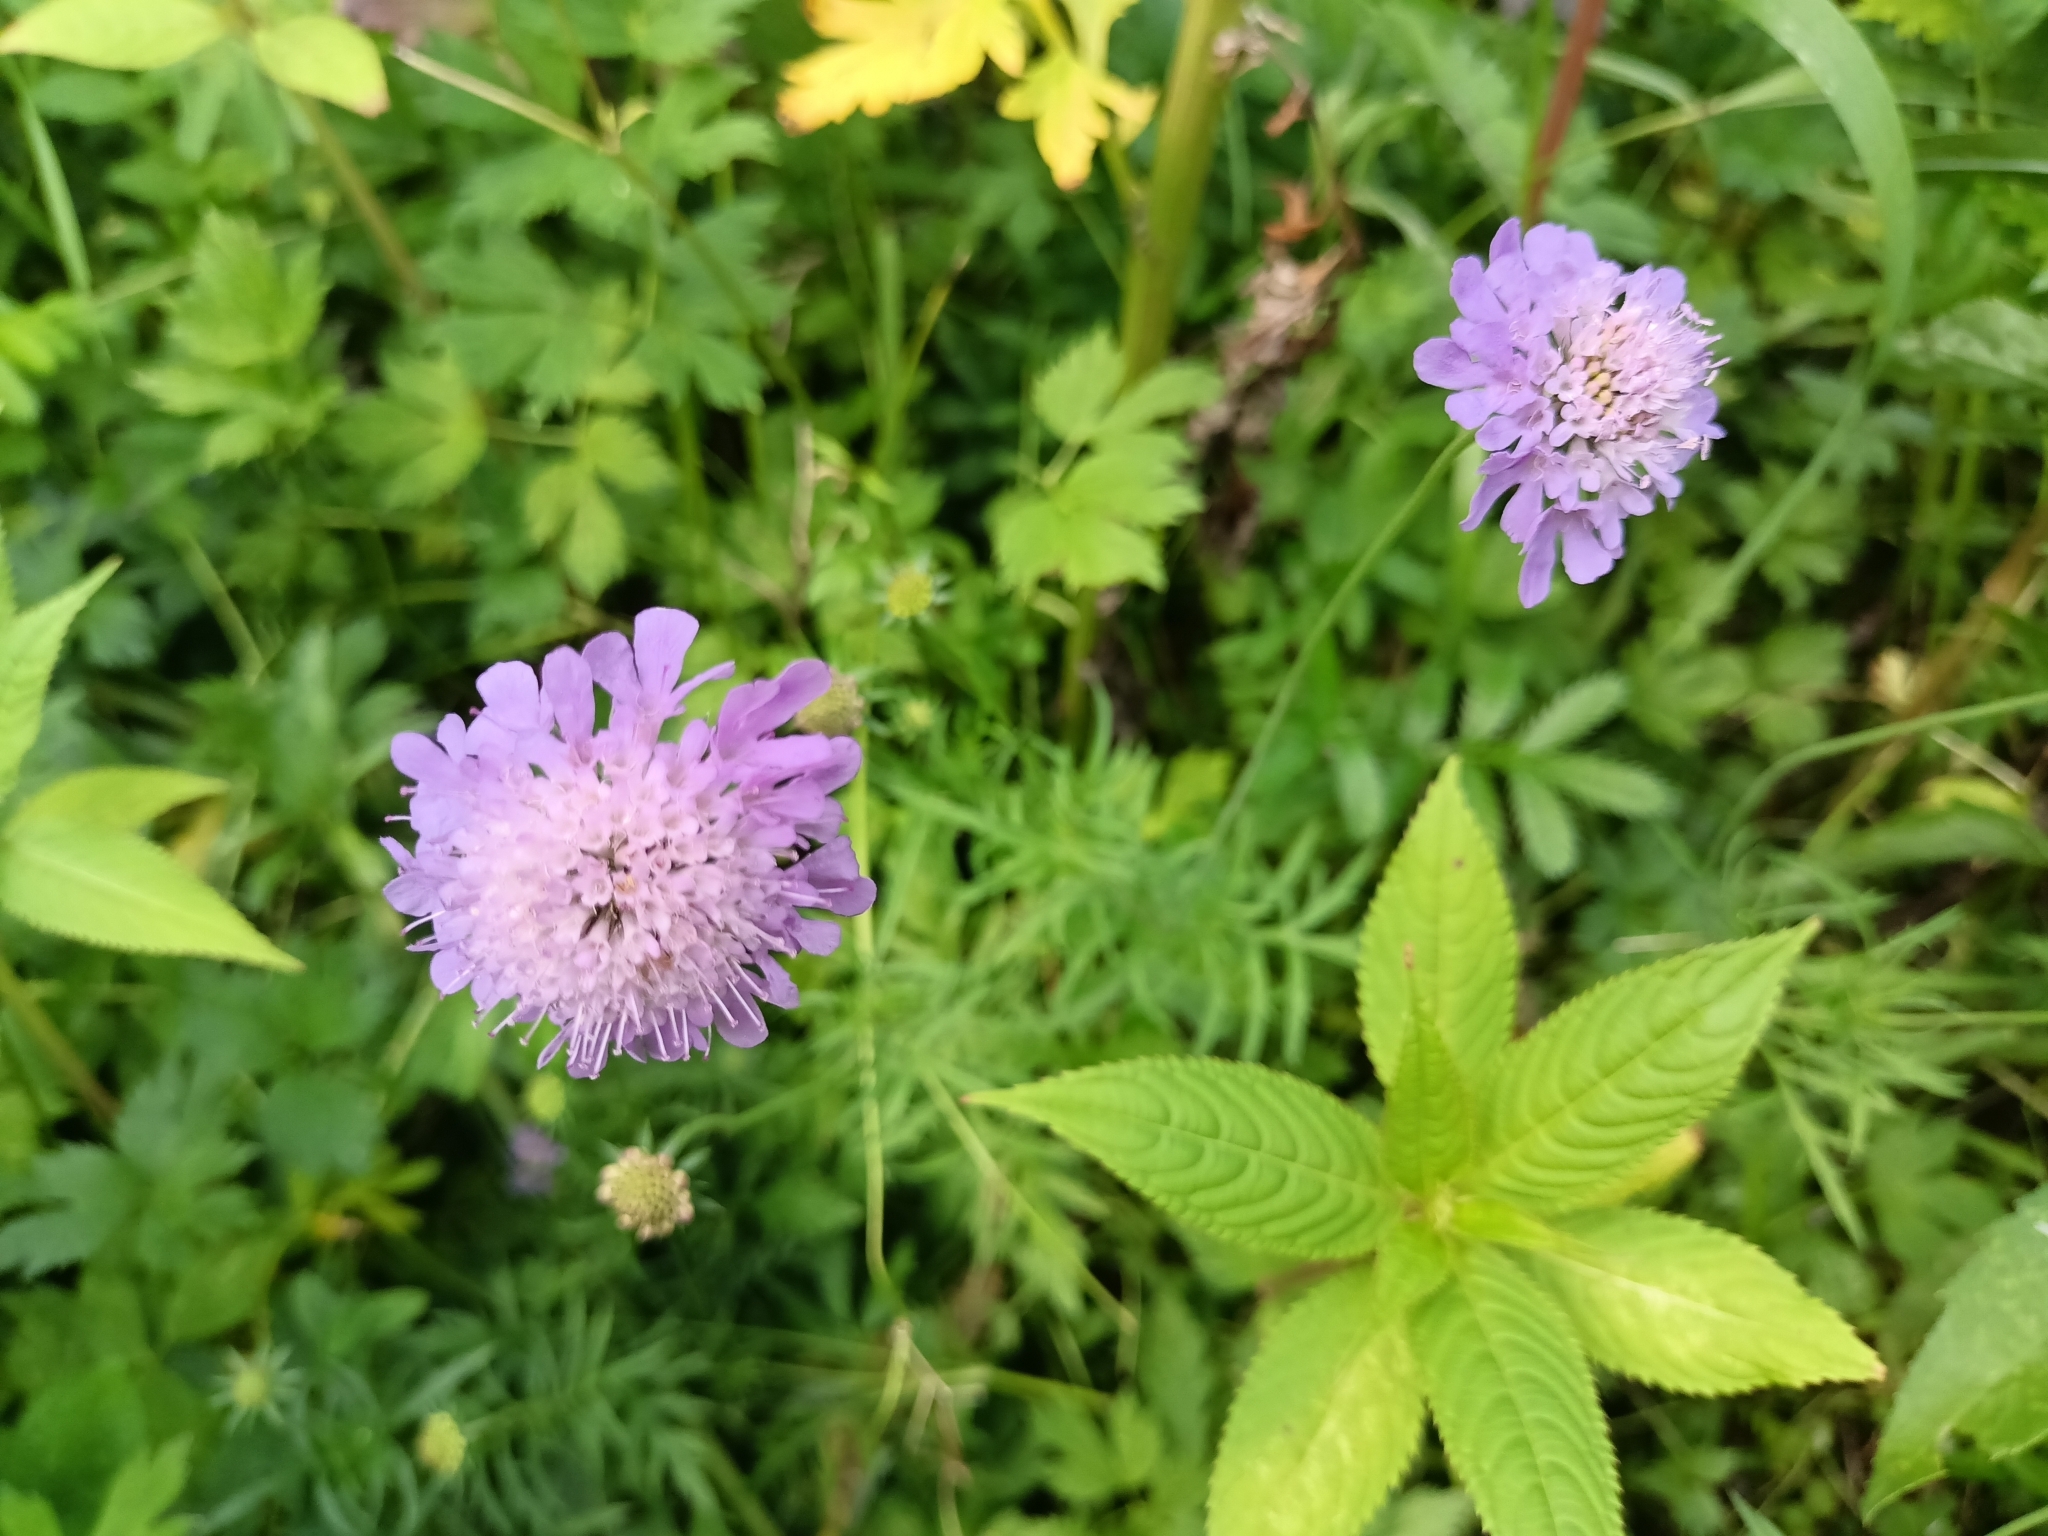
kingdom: Plantae
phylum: Tracheophyta
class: Magnoliopsida
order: Dipsacales
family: Caprifoliaceae
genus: Knautia
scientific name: Knautia arvensis
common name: Field scabiosa
